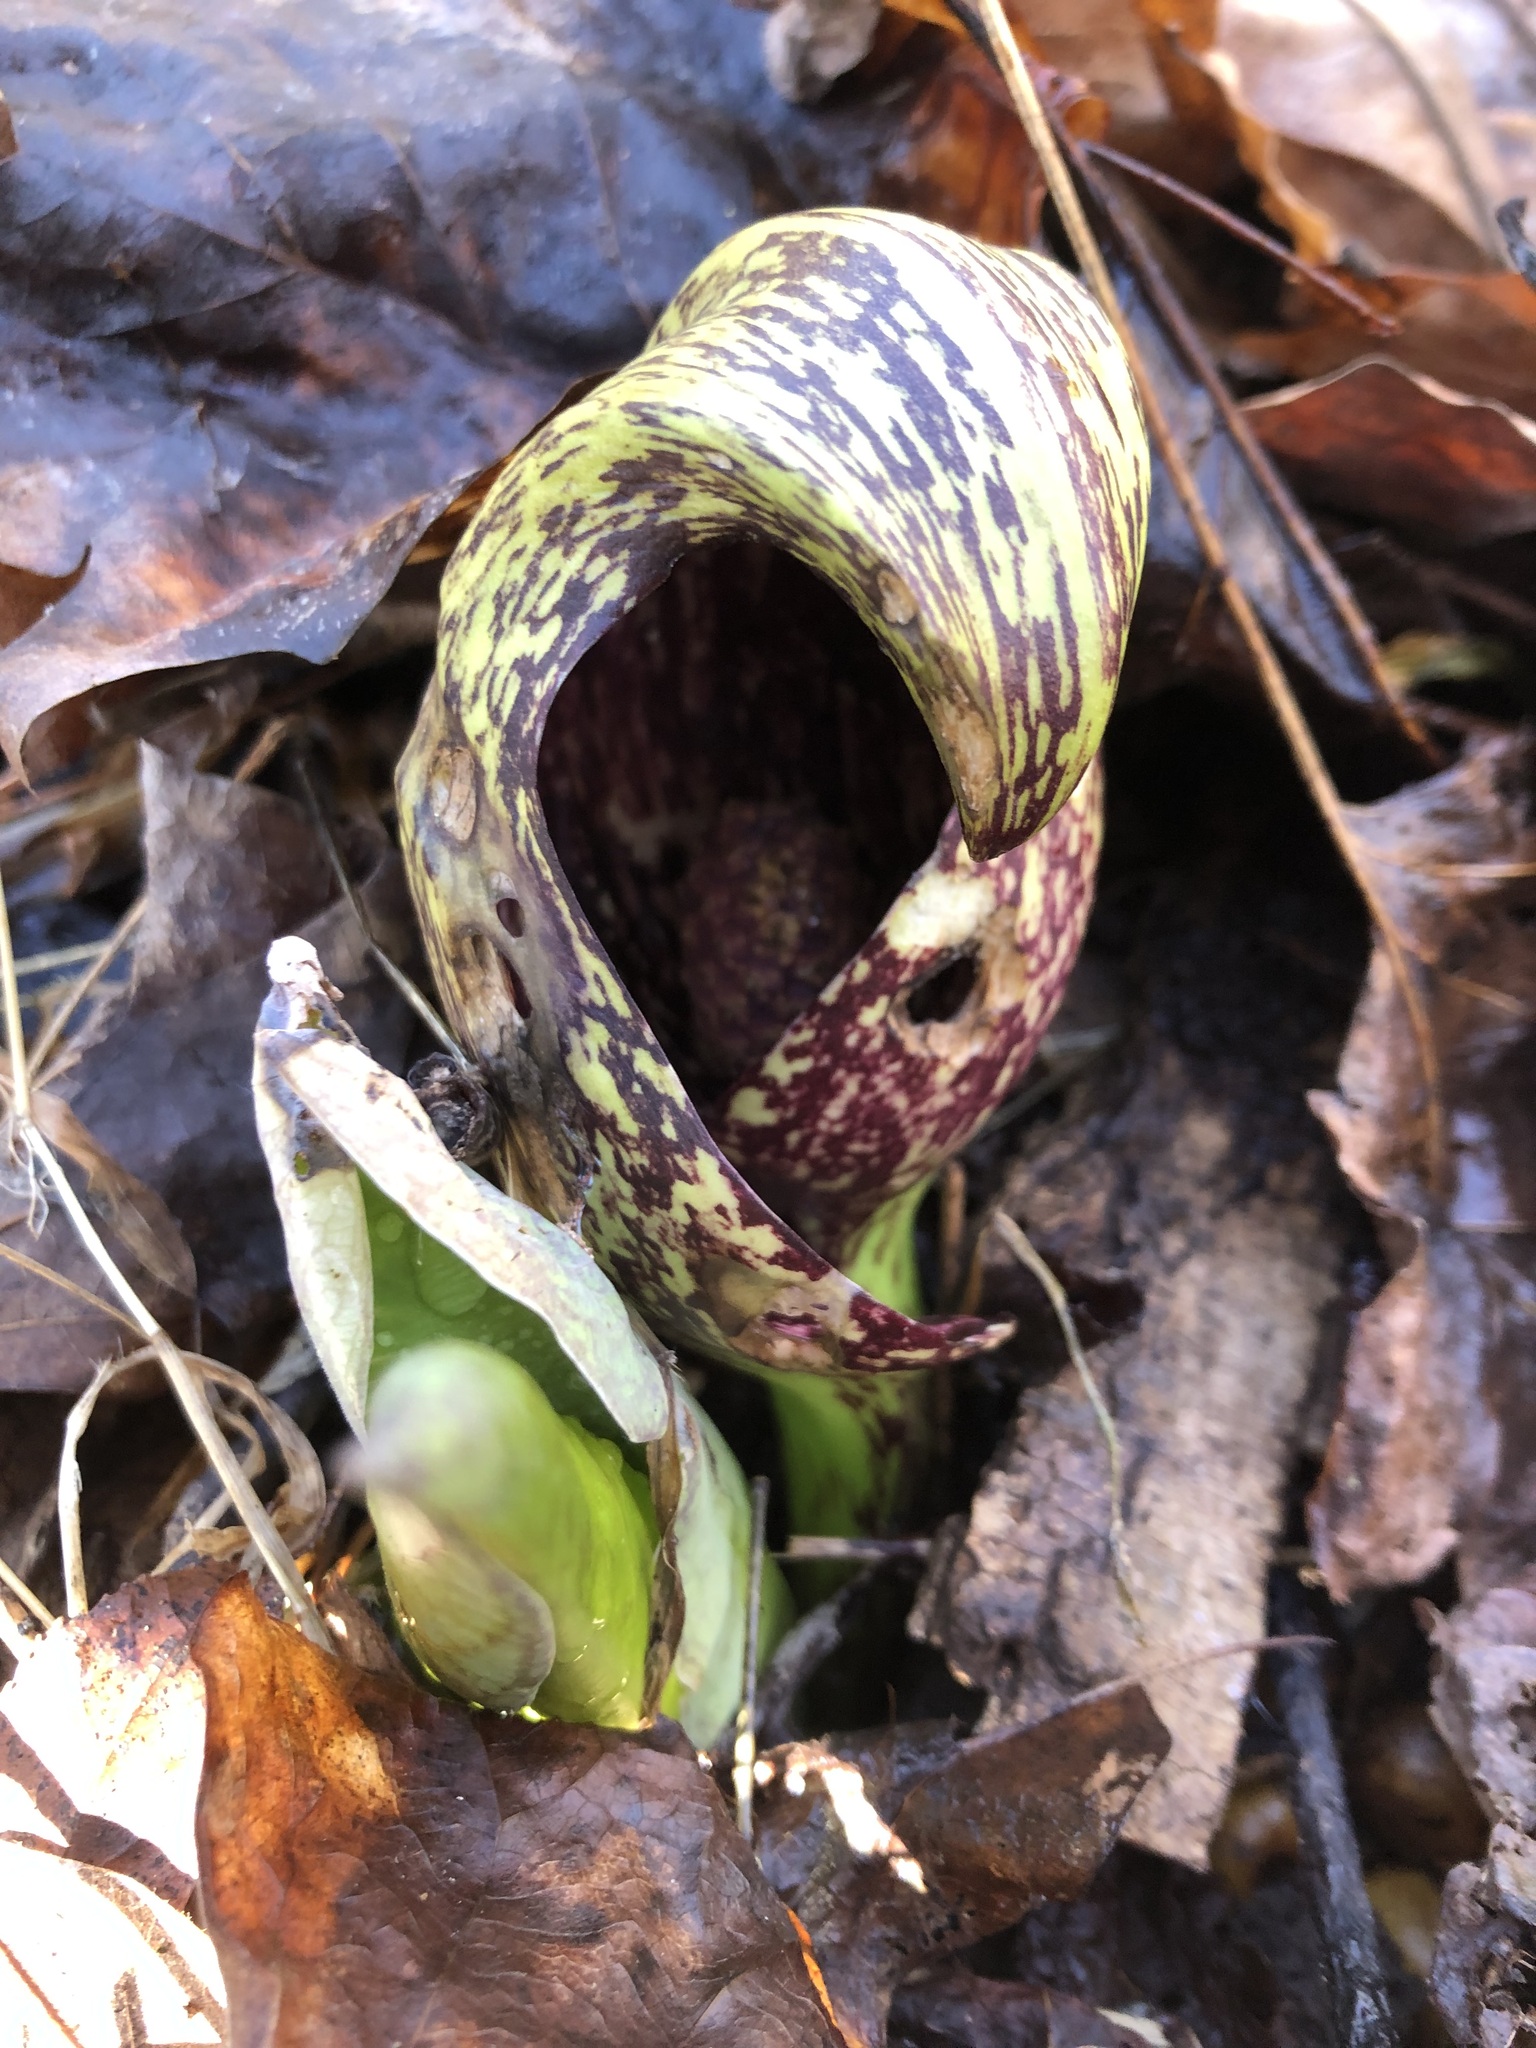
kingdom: Plantae
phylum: Tracheophyta
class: Liliopsida
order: Alismatales
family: Araceae
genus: Symplocarpus
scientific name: Symplocarpus foetidus
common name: Eastern skunk cabbage
